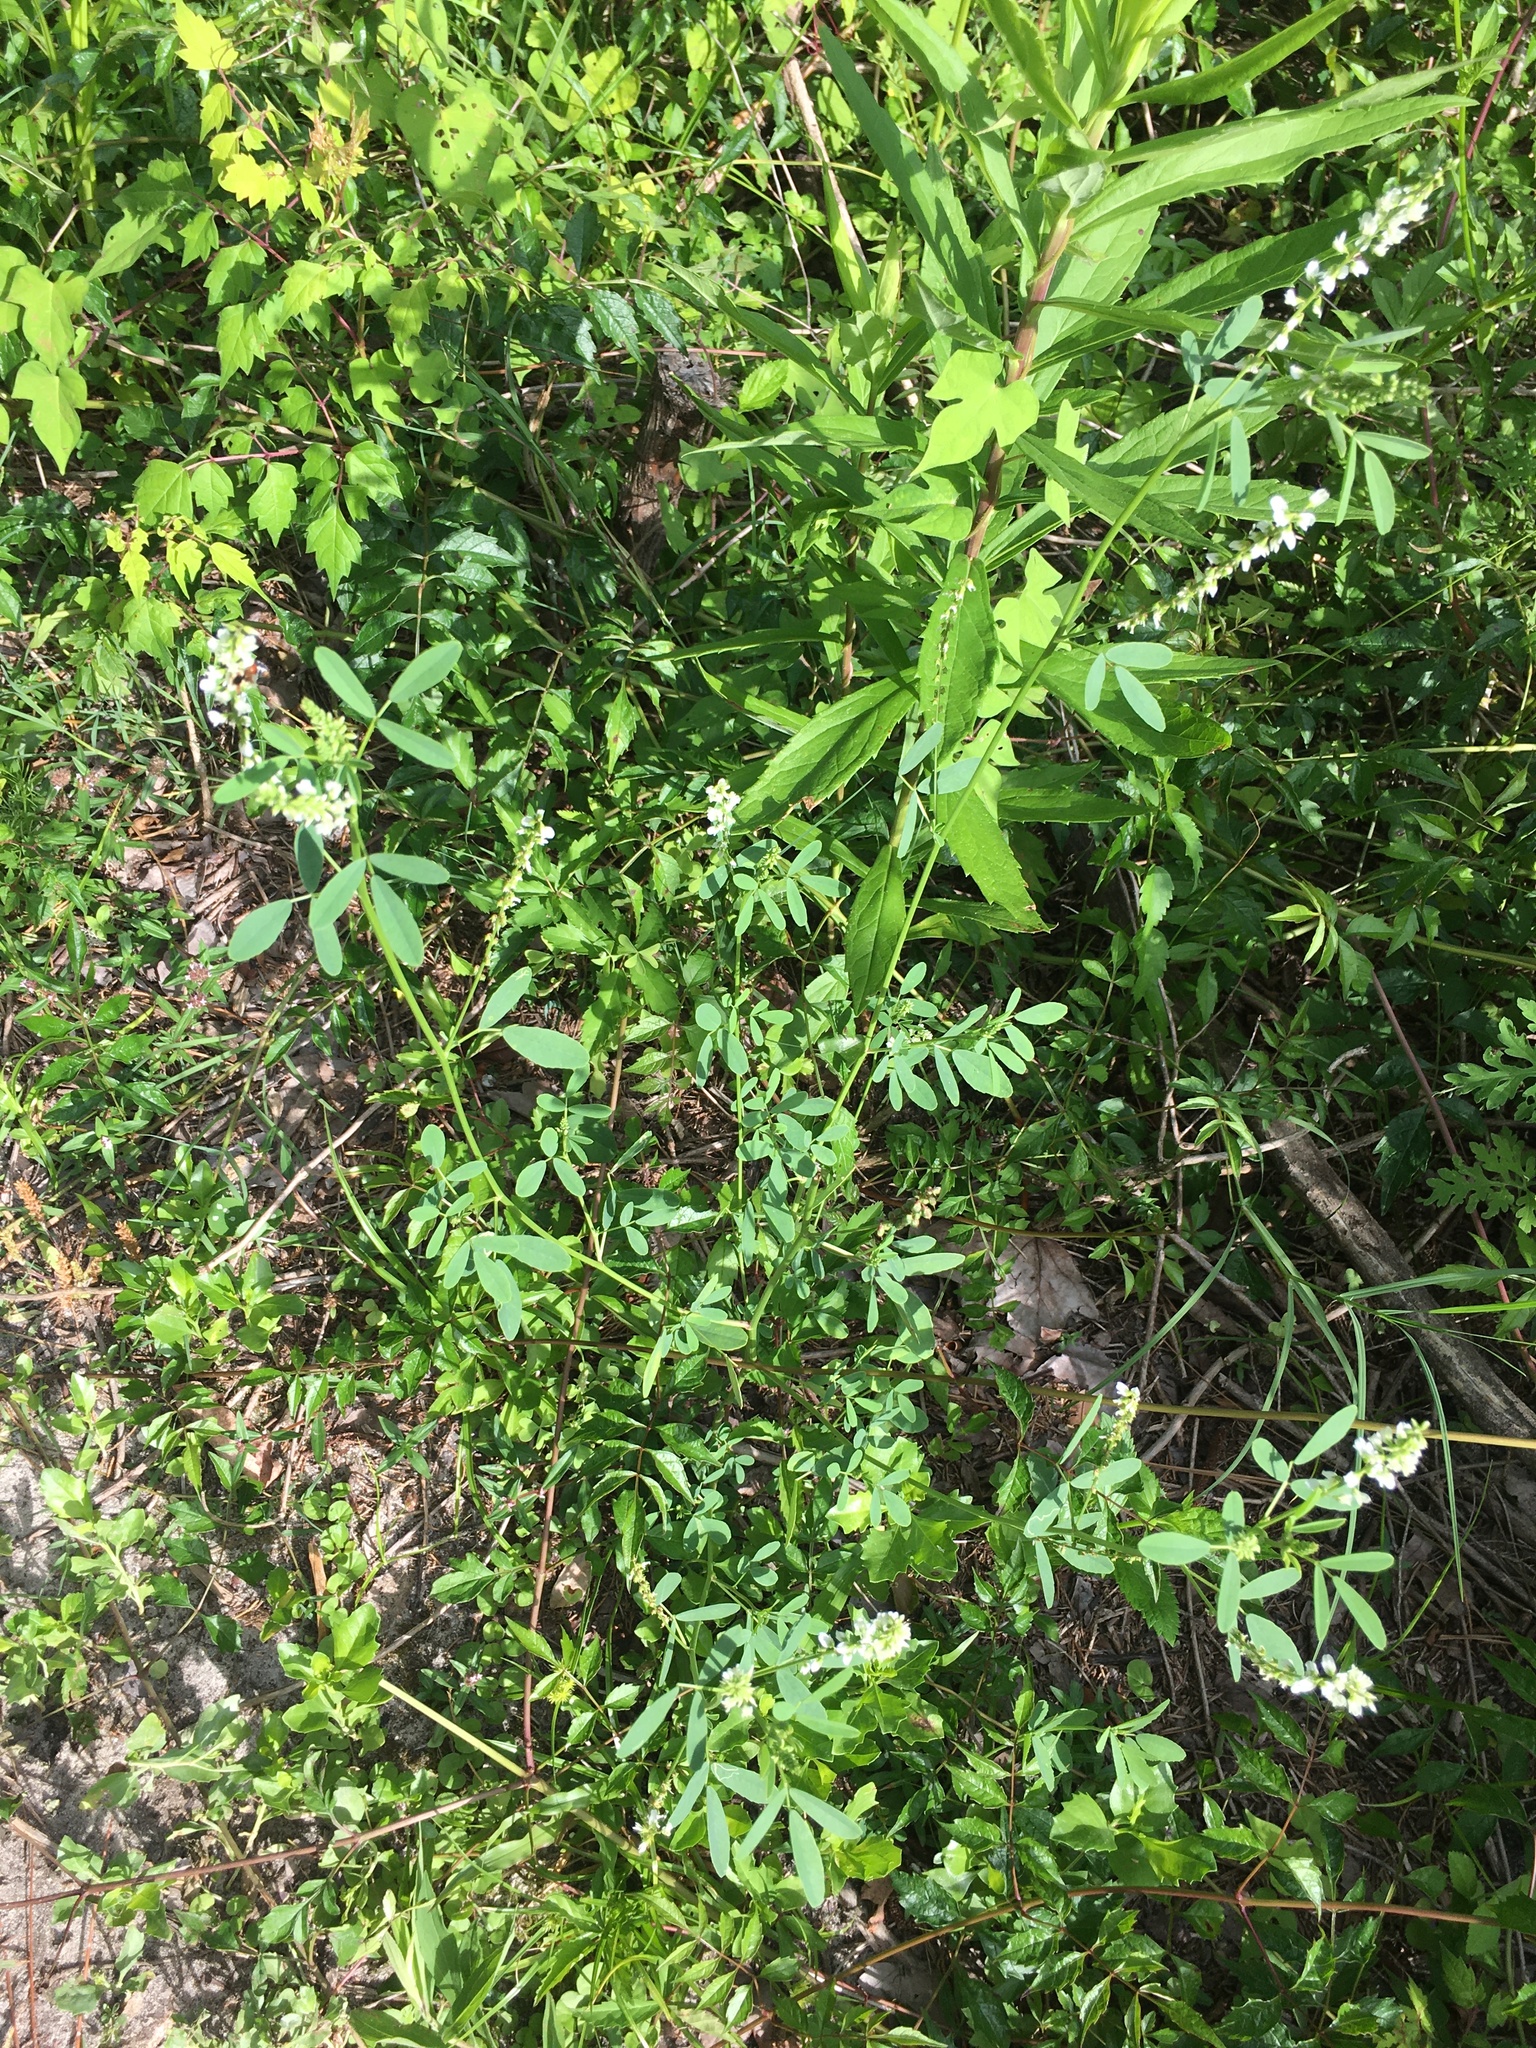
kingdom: Plantae
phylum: Tracheophyta
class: Magnoliopsida
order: Fabales
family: Fabaceae
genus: Melilotus
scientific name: Melilotus albus
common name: White melilot
